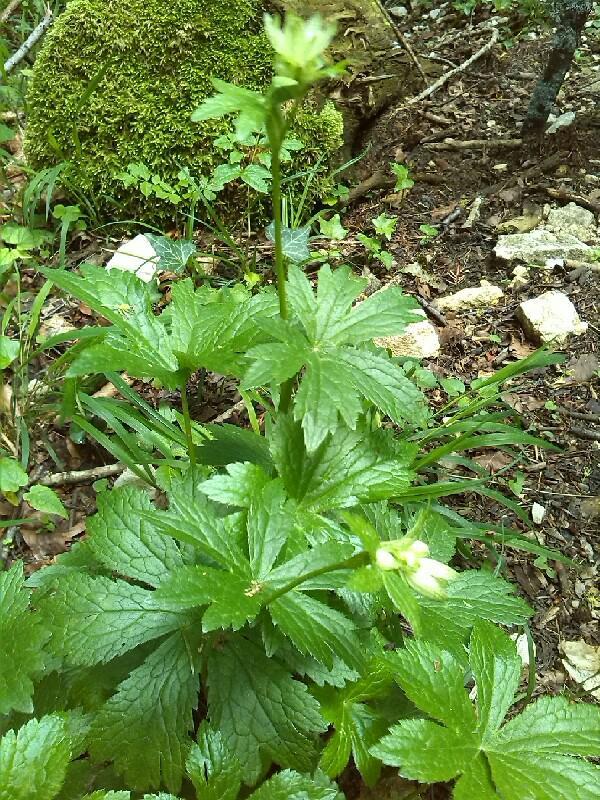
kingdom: Plantae
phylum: Tracheophyta
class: Magnoliopsida
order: Apiales
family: Apiaceae
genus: Astrantia
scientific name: Astrantia major
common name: Greater masterwort
